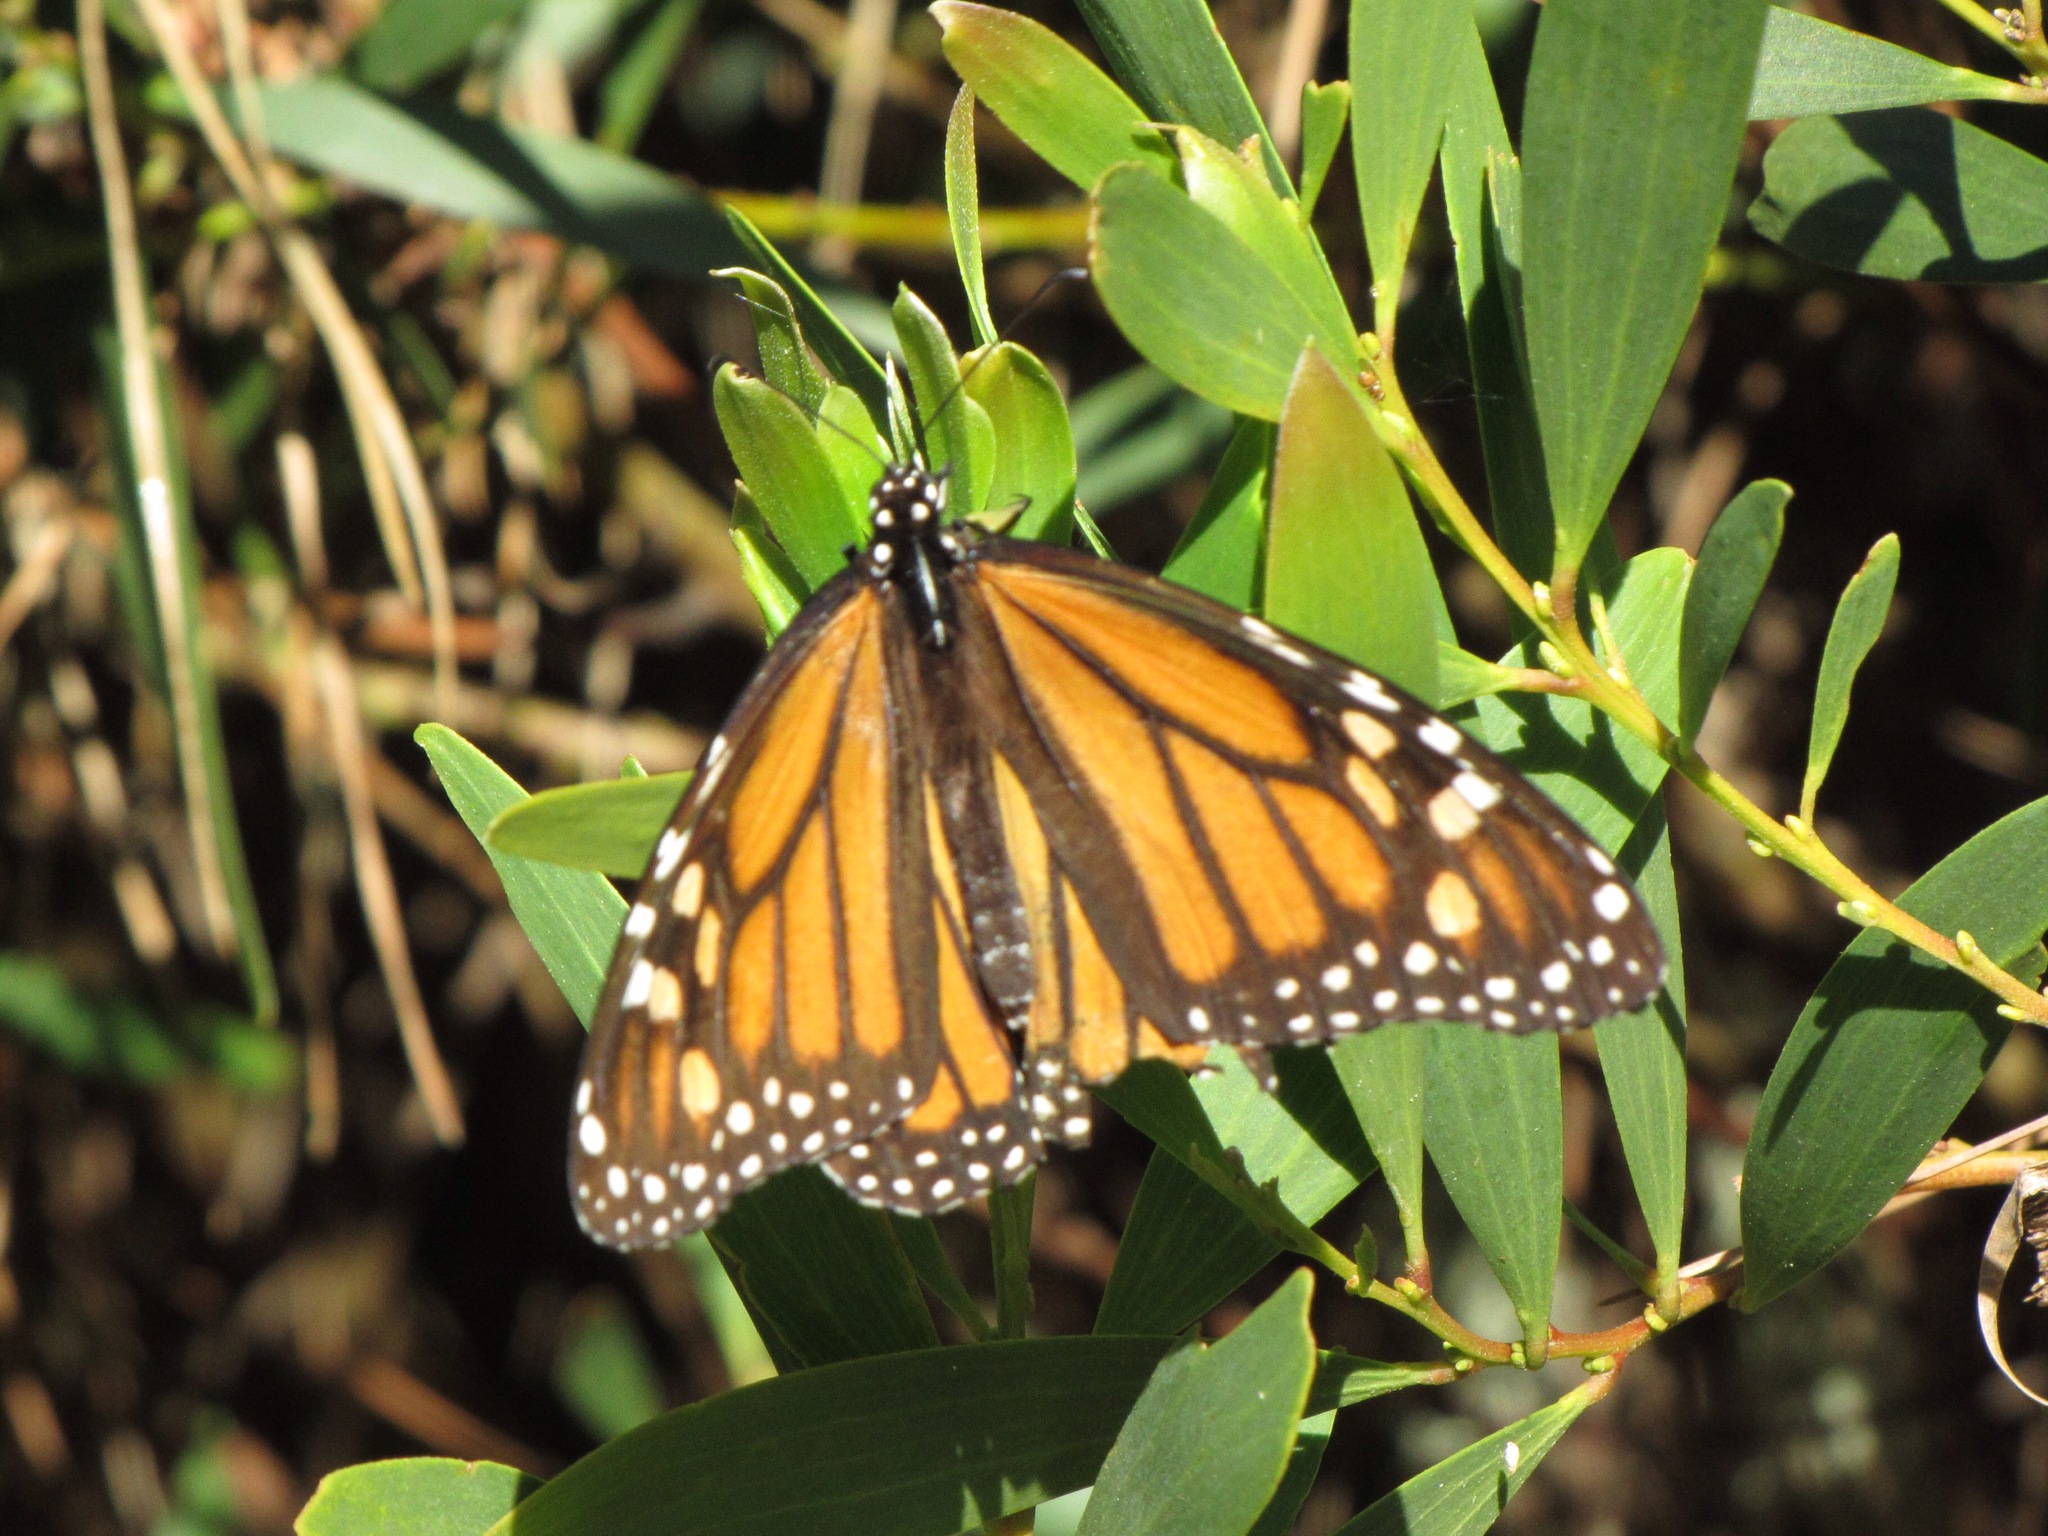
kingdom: Animalia
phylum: Arthropoda
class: Insecta
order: Lepidoptera
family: Nymphalidae
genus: Danaus
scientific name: Danaus plexippus
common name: Monarch
